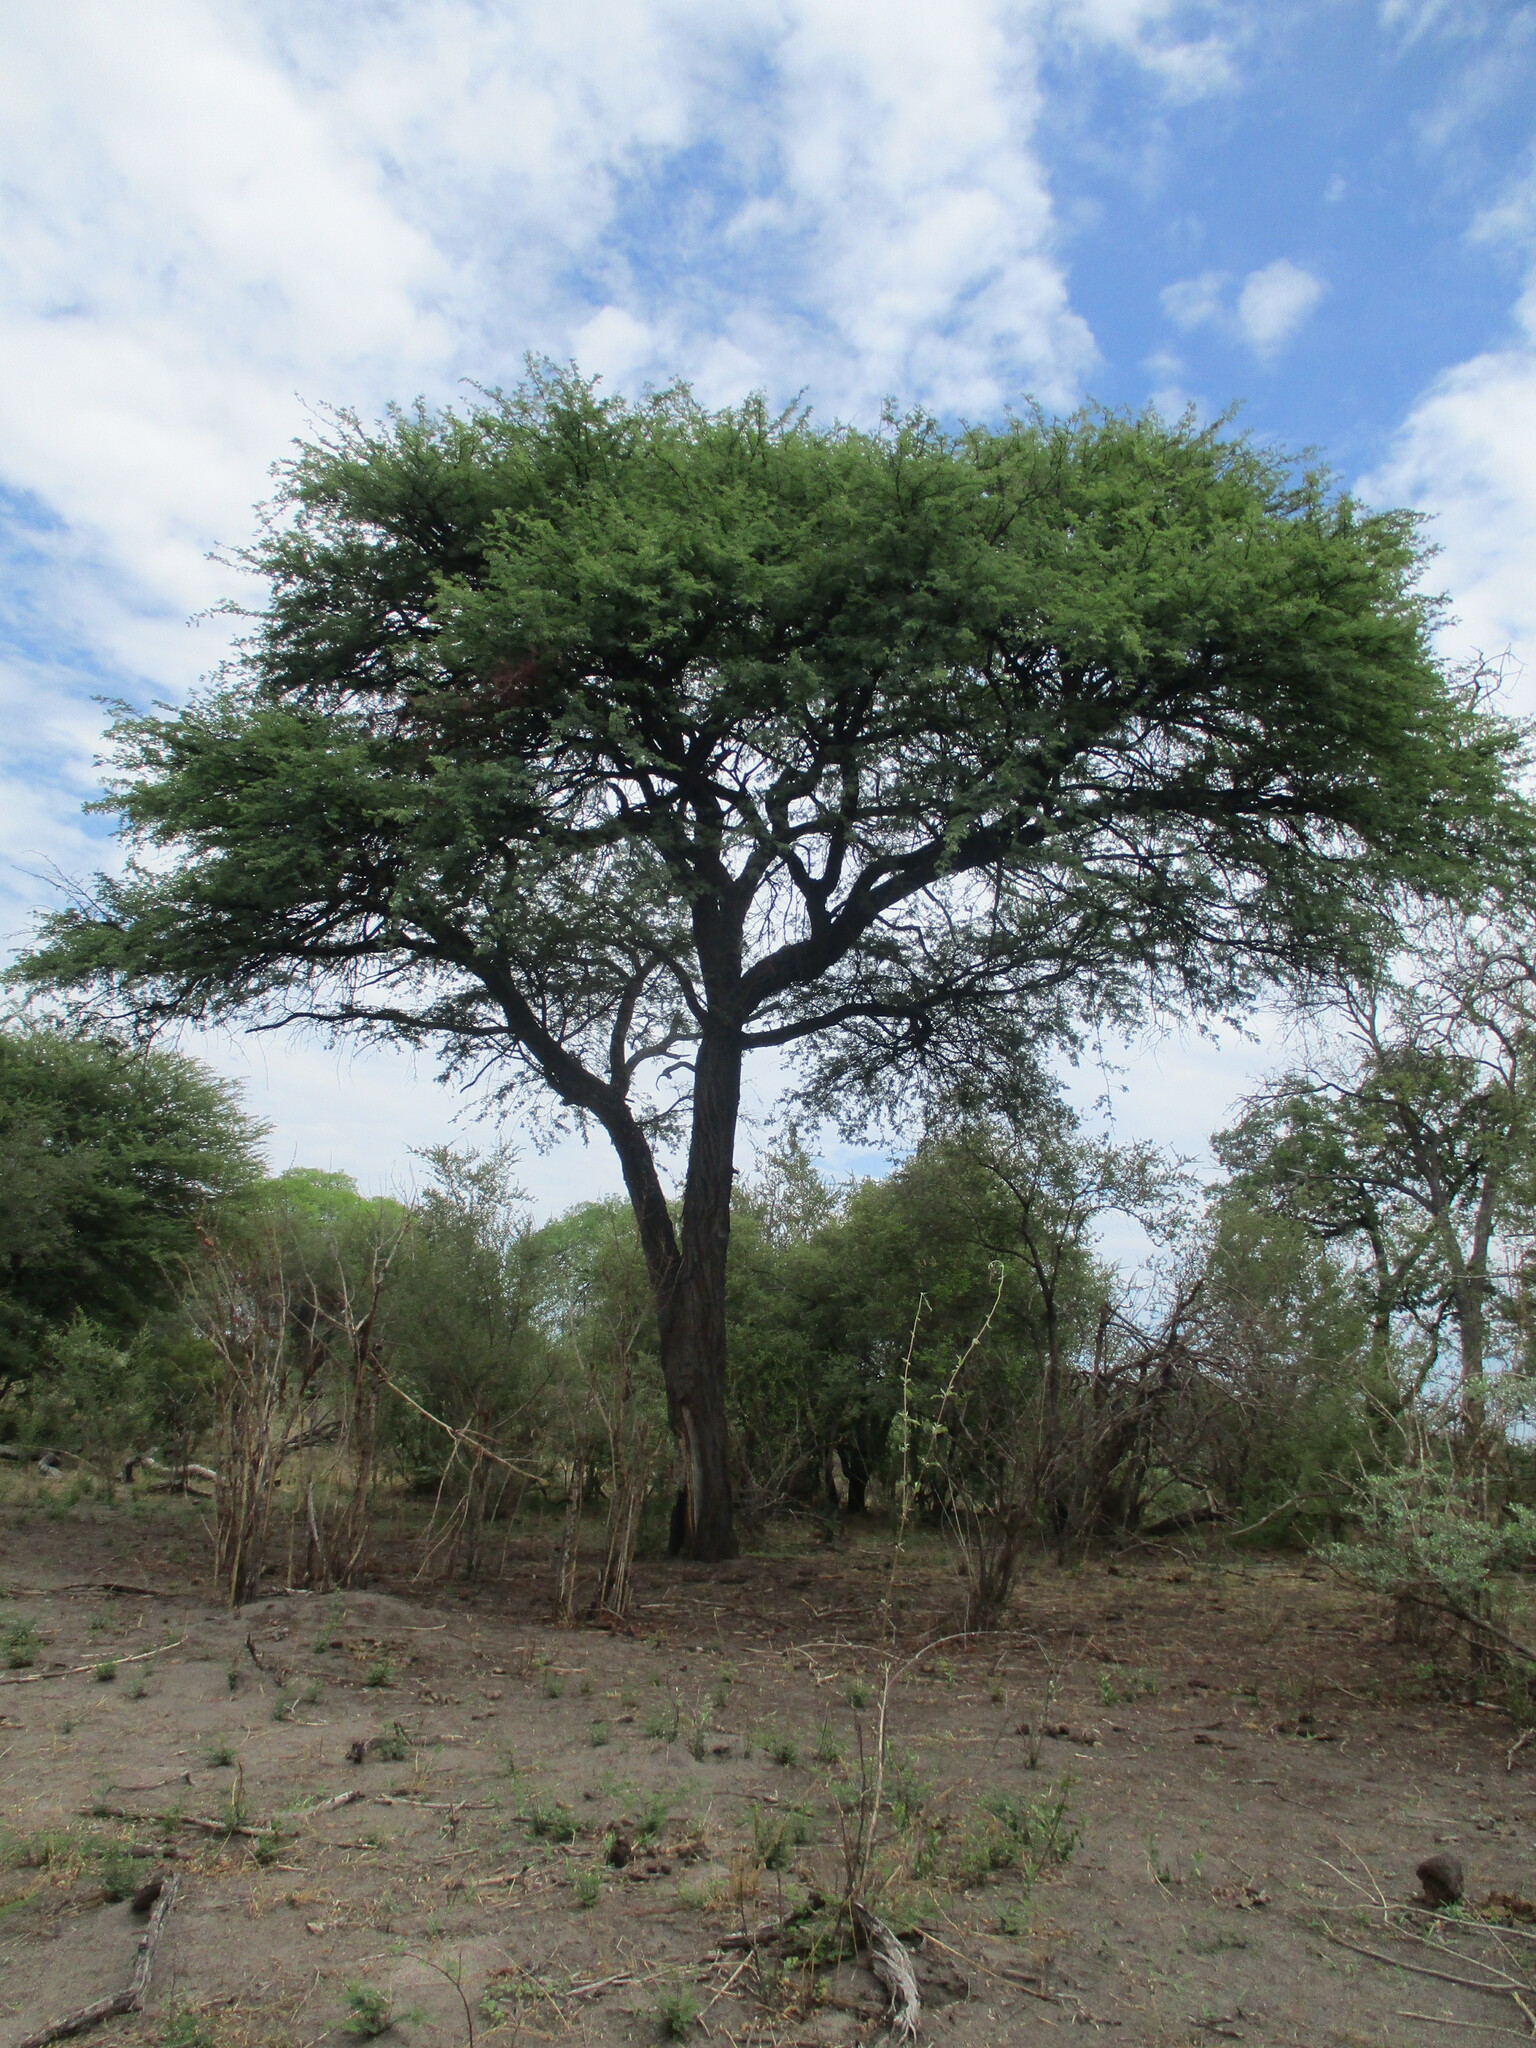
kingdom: Plantae
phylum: Tracheophyta
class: Magnoliopsida
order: Fabales
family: Fabaceae
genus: Vachellia
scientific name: Vachellia erioloba
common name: Camel thorn
